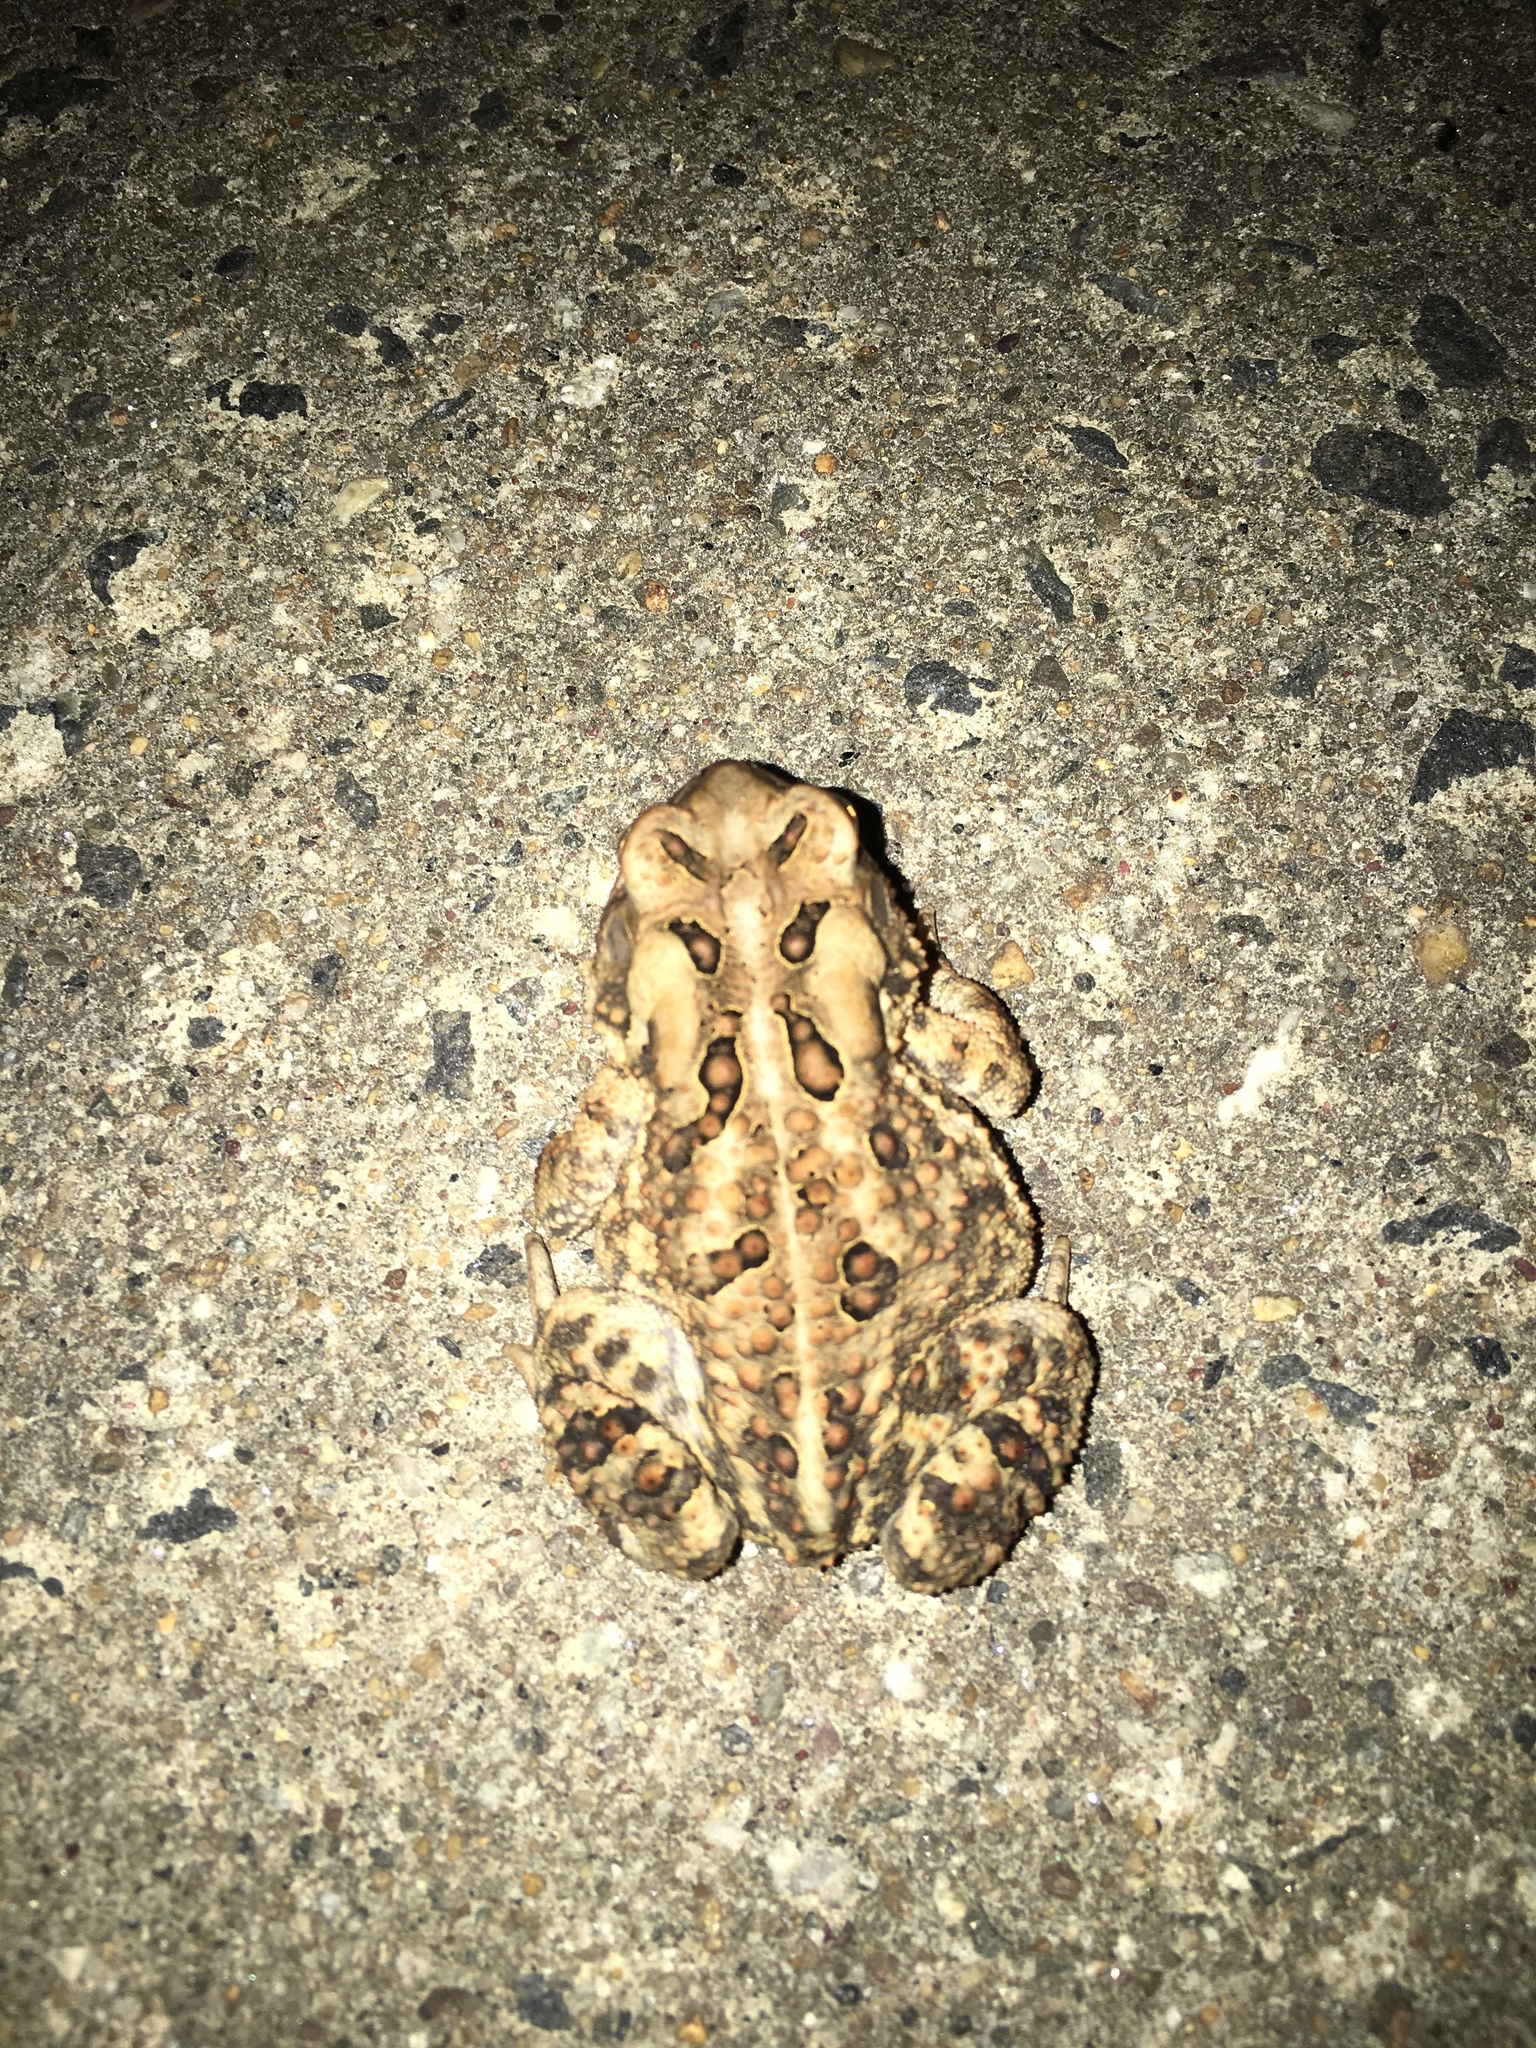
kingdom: Animalia
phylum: Chordata
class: Amphibia
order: Anura
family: Bufonidae
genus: Anaxyrus
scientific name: Anaxyrus americanus
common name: American toad
